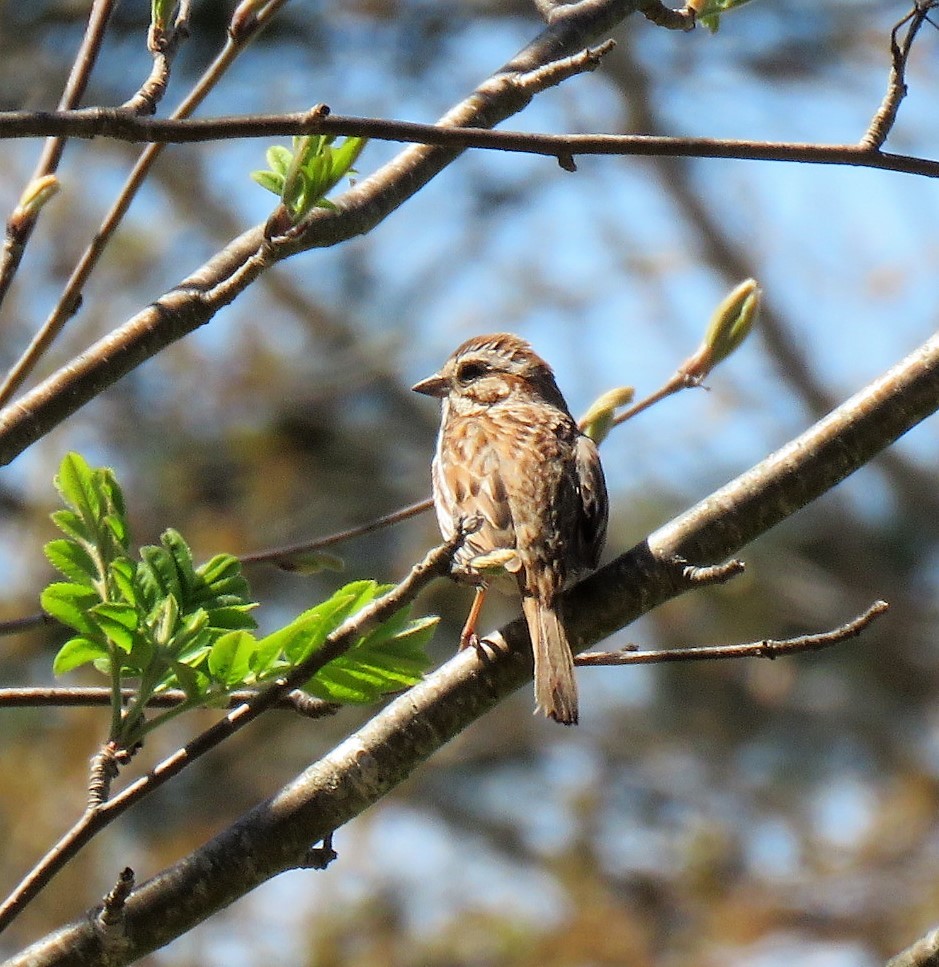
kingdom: Animalia
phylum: Chordata
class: Aves
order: Passeriformes
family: Passerellidae
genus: Melospiza
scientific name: Melospiza melodia
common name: Song sparrow
